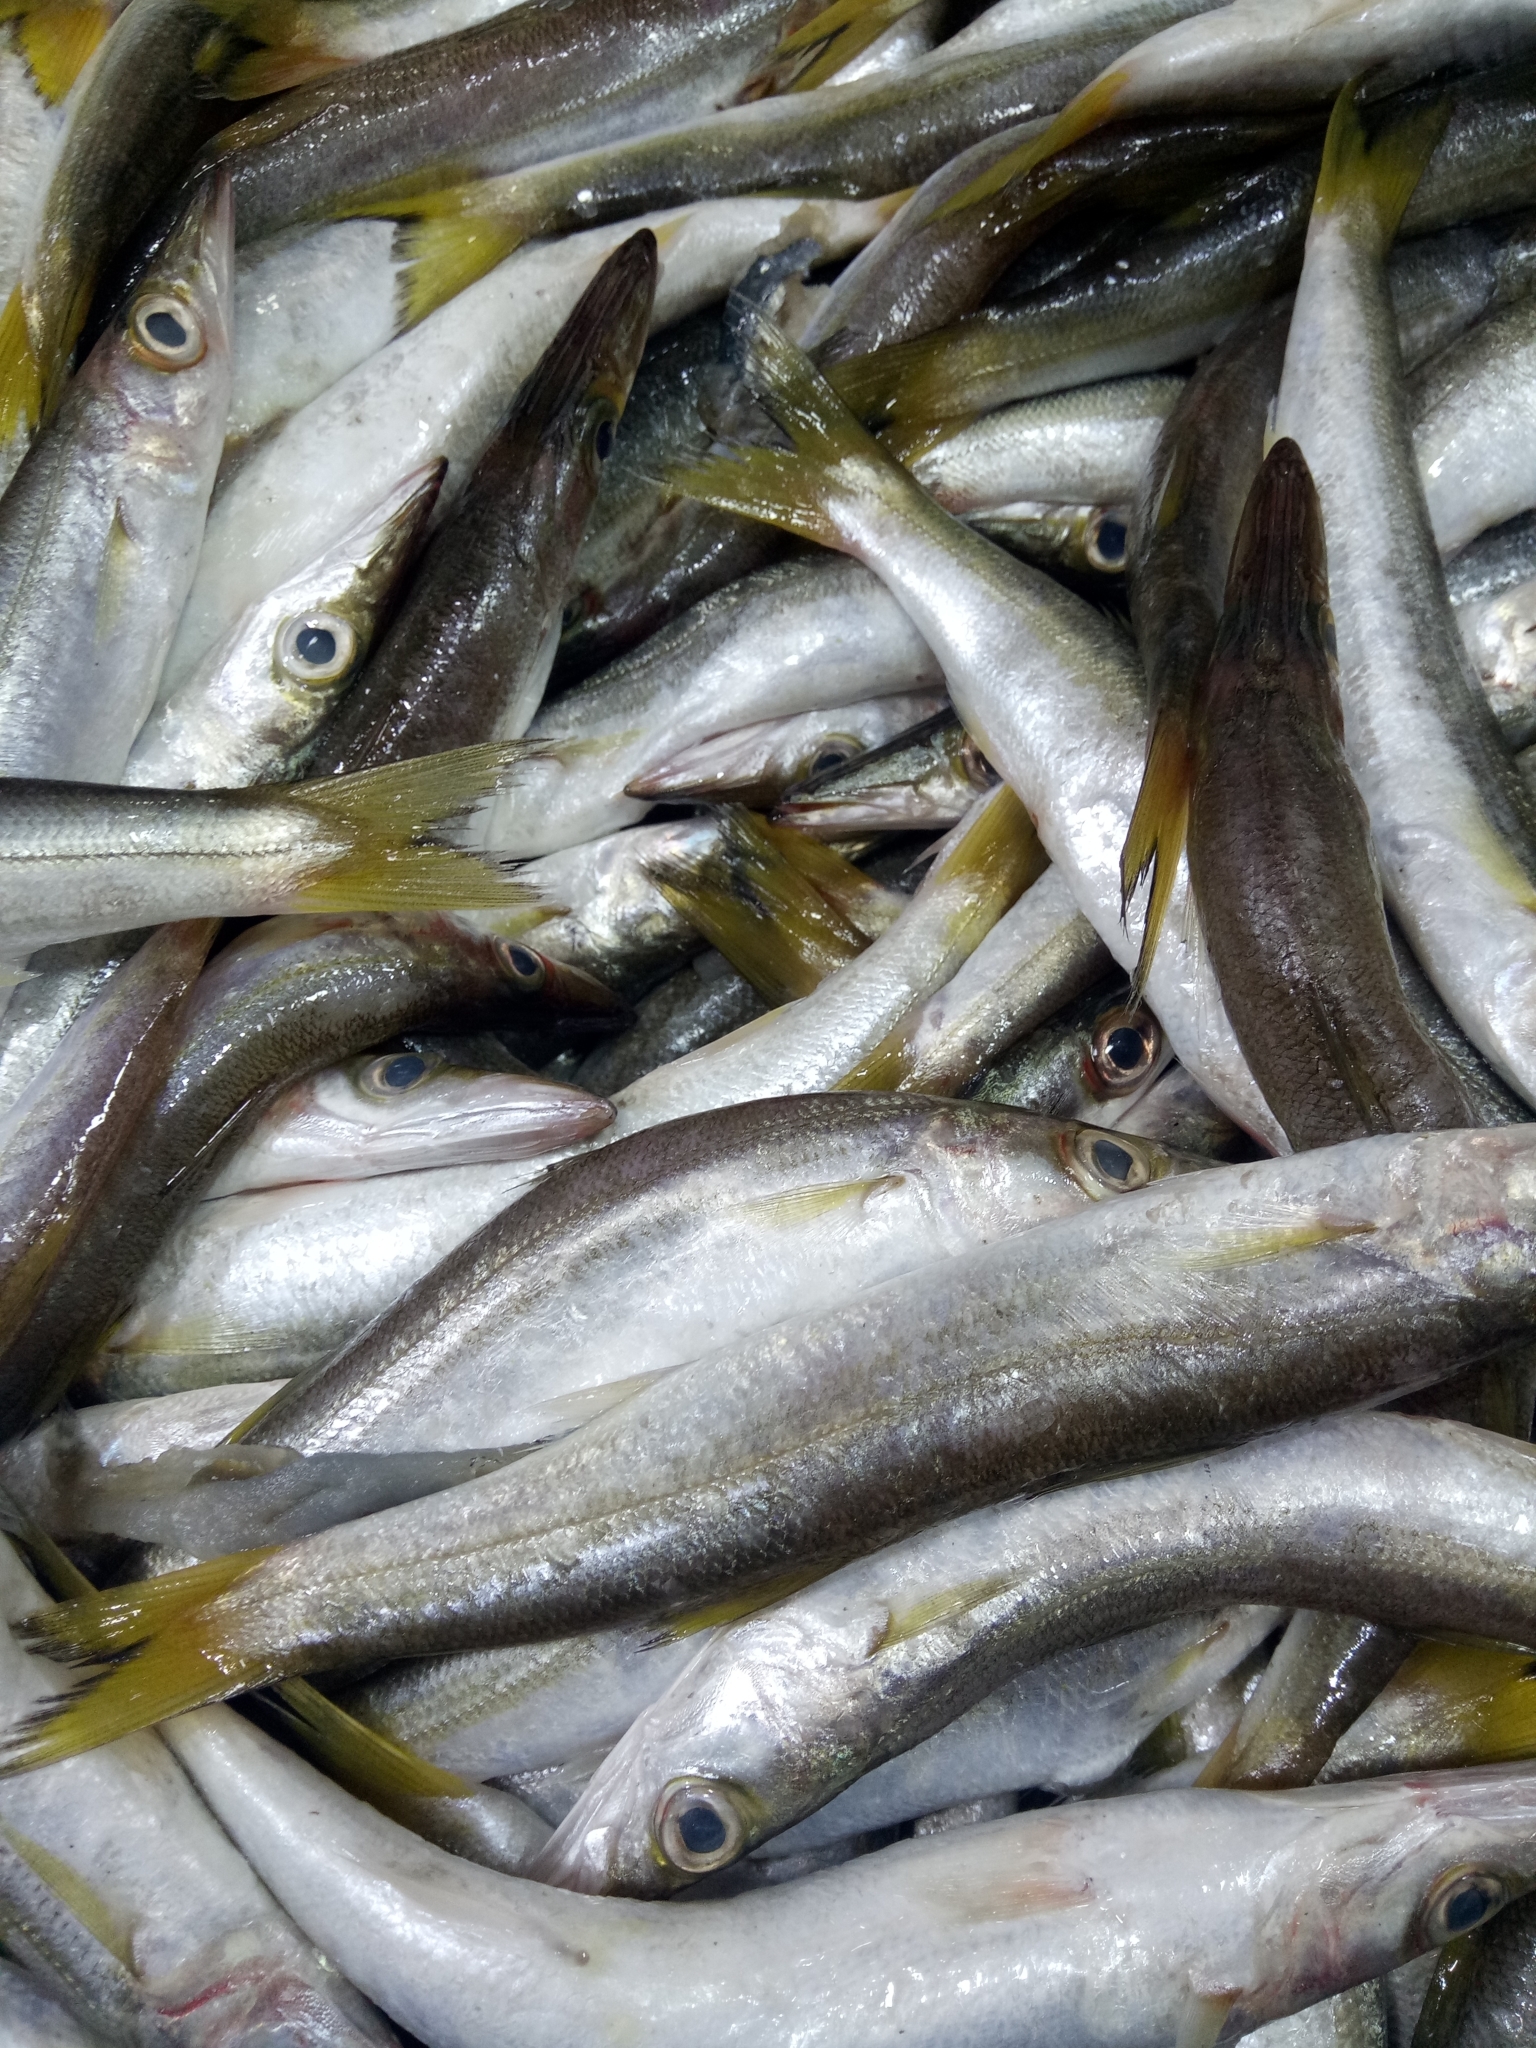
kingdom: Animalia
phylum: Chordata
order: Perciformes
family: Sphyraenidae
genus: Sphyraena
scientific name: Sphyraena sphyraena
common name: European barracuda
